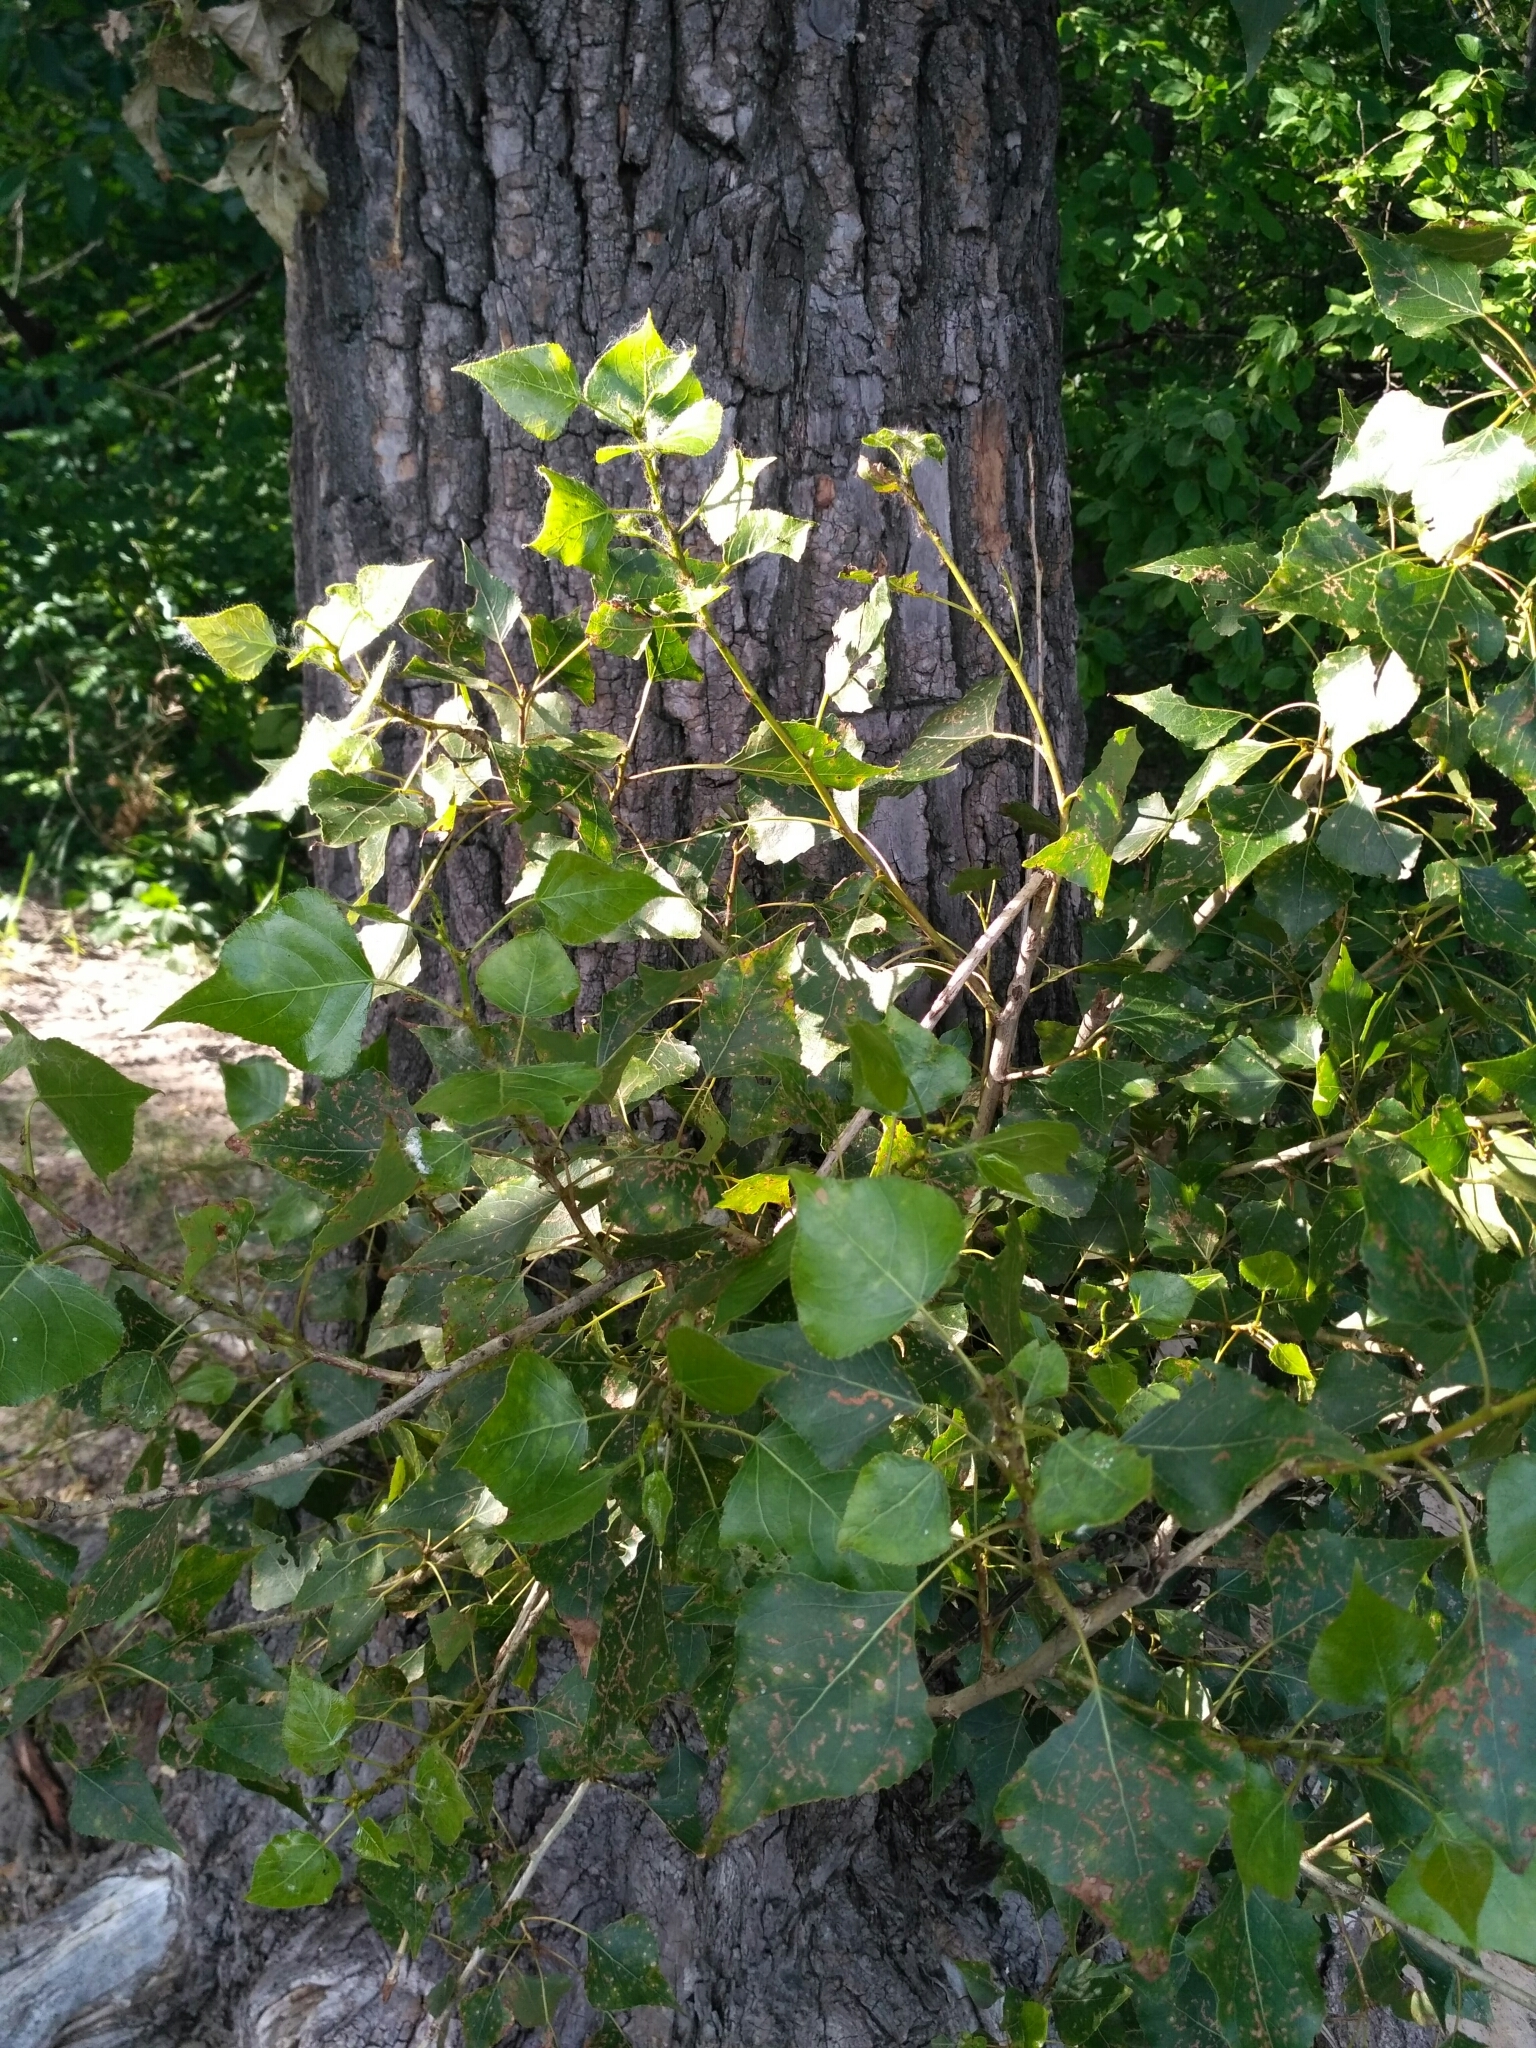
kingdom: Plantae
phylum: Tracheophyta
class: Magnoliopsida
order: Malpighiales
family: Salicaceae
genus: Populus
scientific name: Populus nigra
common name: Black poplar
